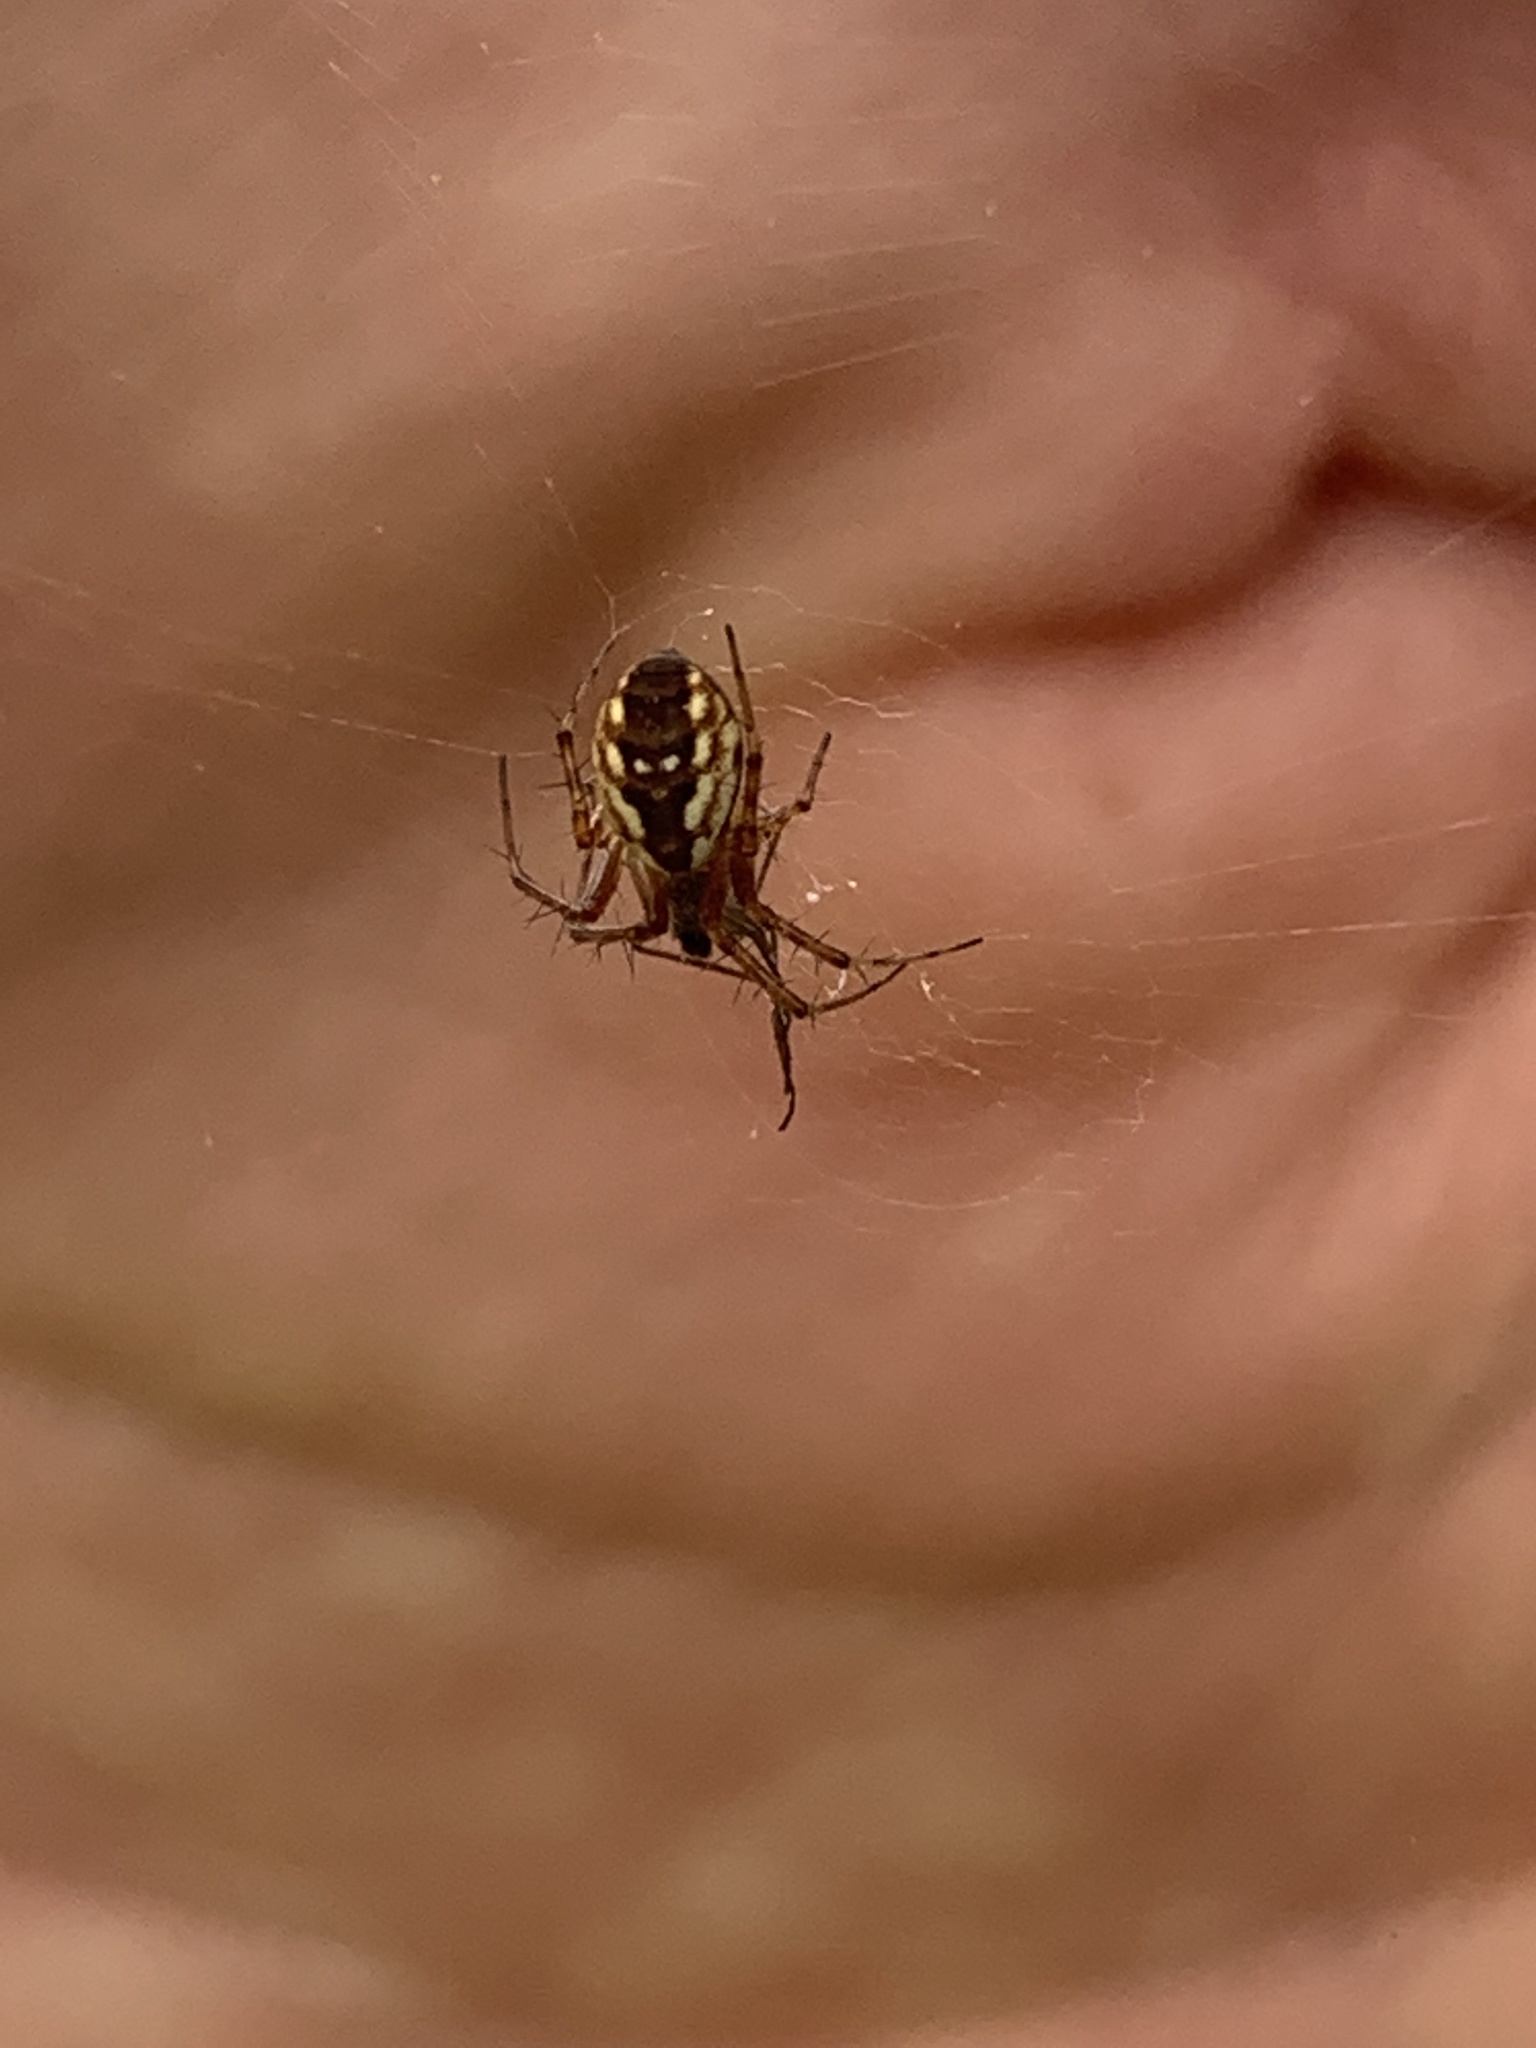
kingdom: Animalia
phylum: Arthropoda
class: Arachnida
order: Araneae
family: Araneidae
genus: Mangora
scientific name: Mangora placida
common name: Tuft-legged orbweaver
